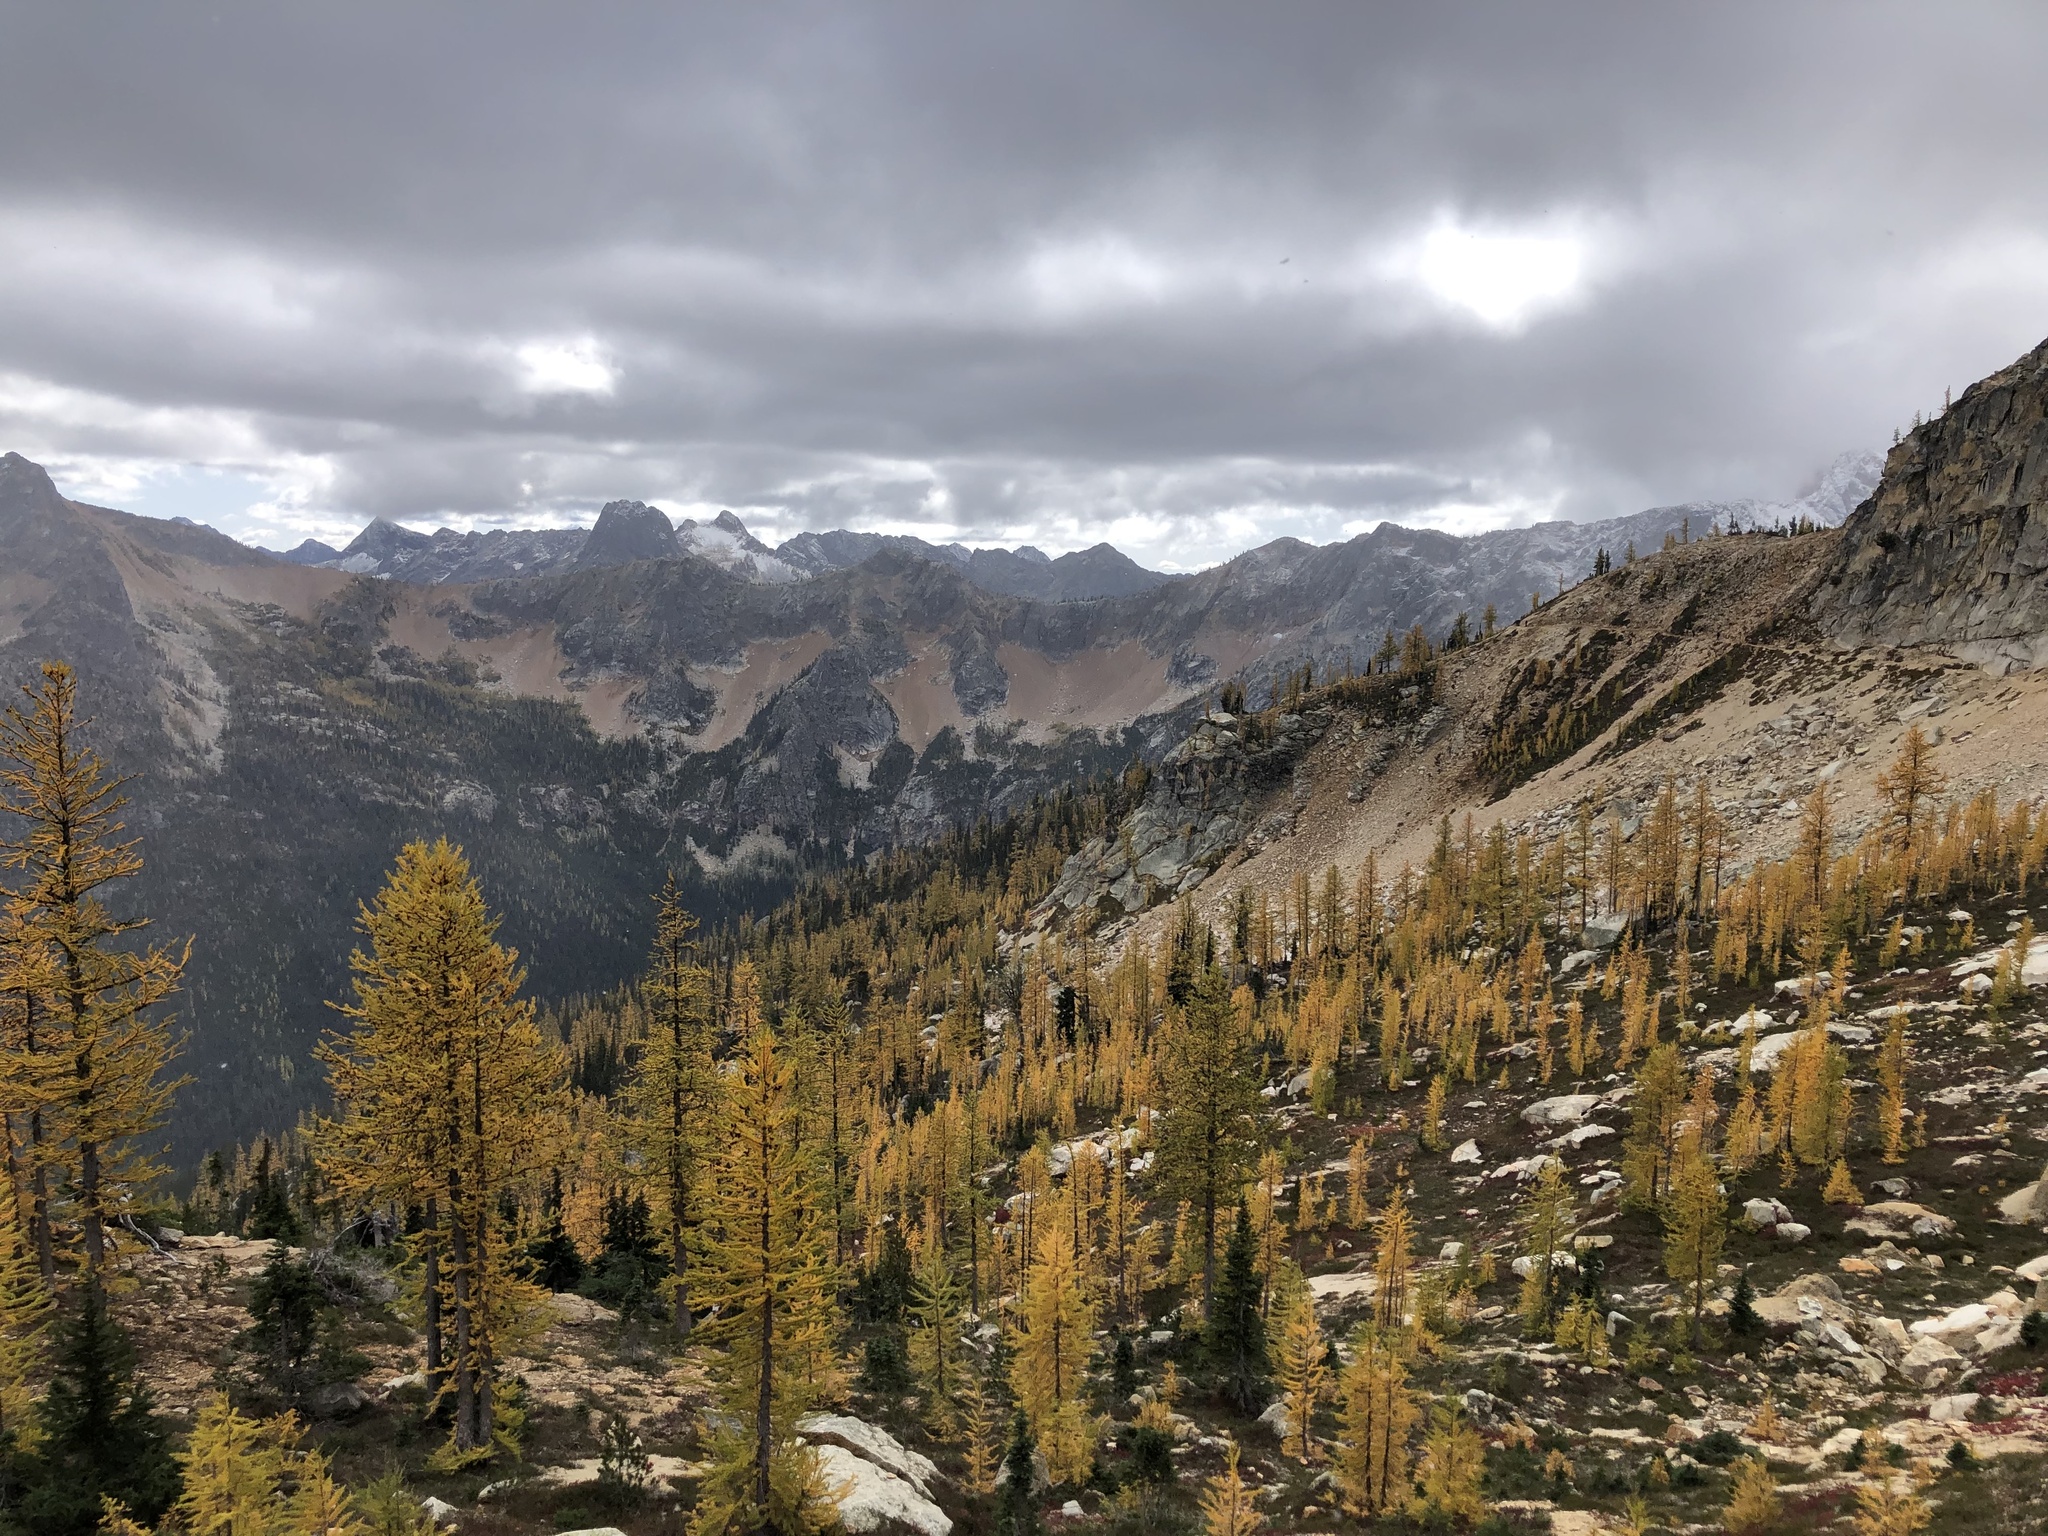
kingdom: Plantae
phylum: Tracheophyta
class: Pinopsida
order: Pinales
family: Pinaceae
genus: Larix
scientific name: Larix lyallii
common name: Alpine larch
